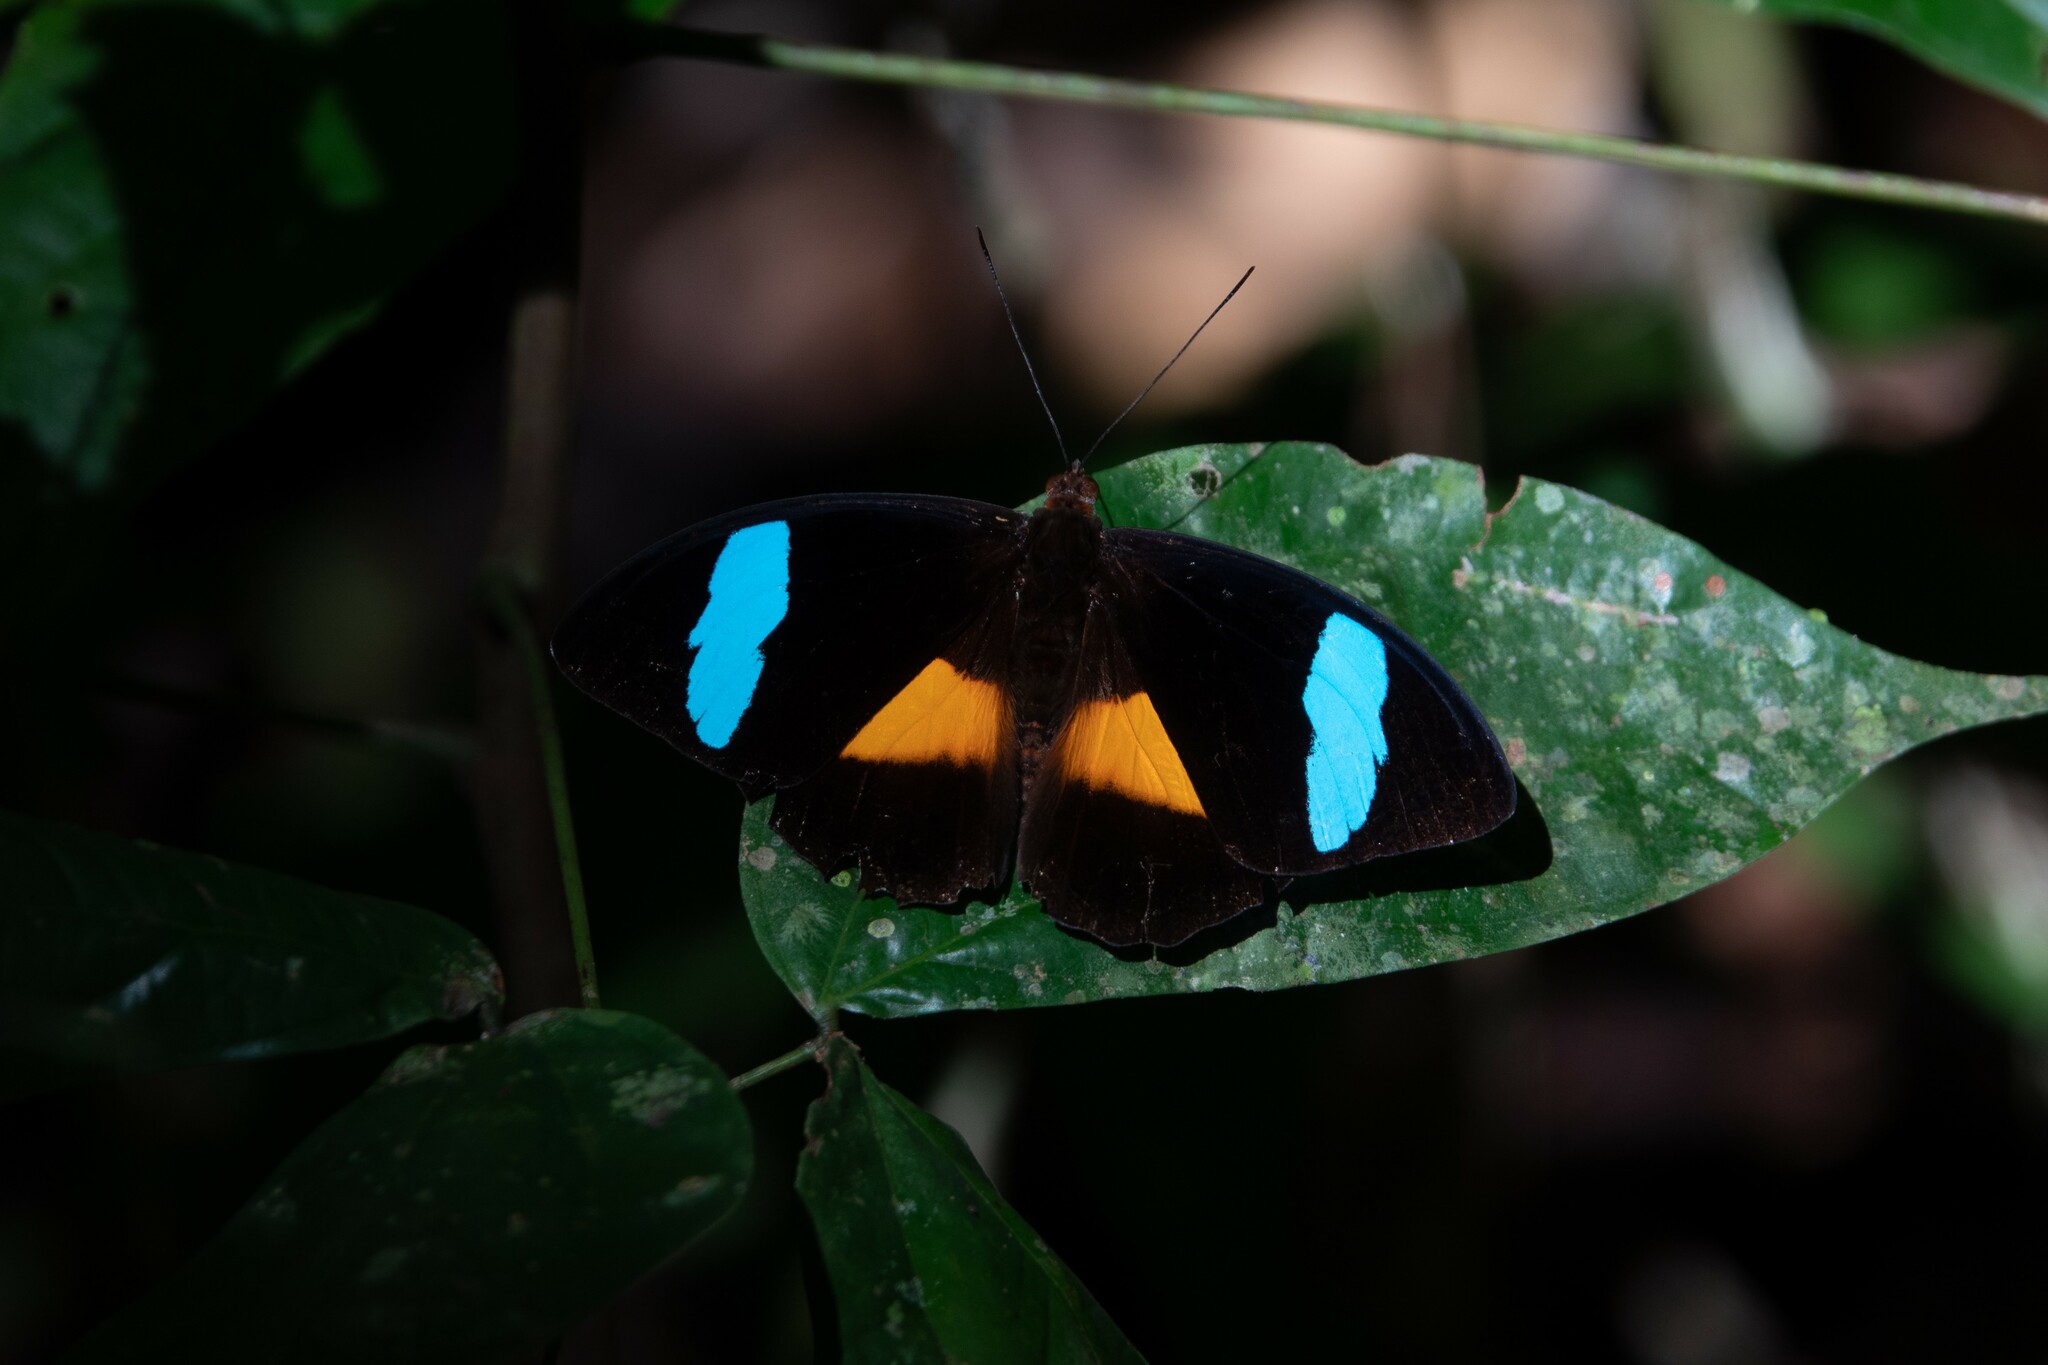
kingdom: Animalia
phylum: Arthropoda
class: Insecta
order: Lepidoptera
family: Nymphalidae
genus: Nessaea
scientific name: Nessaea obrinus
